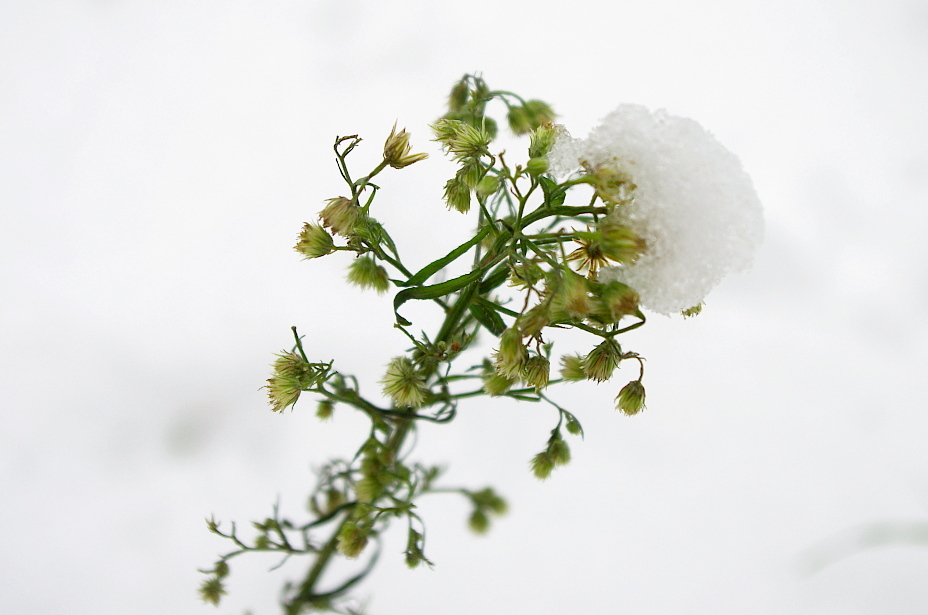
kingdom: Plantae
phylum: Tracheophyta
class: Magnoliopsida
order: Asterales
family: Asteraceae
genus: Erigeron
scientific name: Erigeron canadensis
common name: Canadian fleabane
